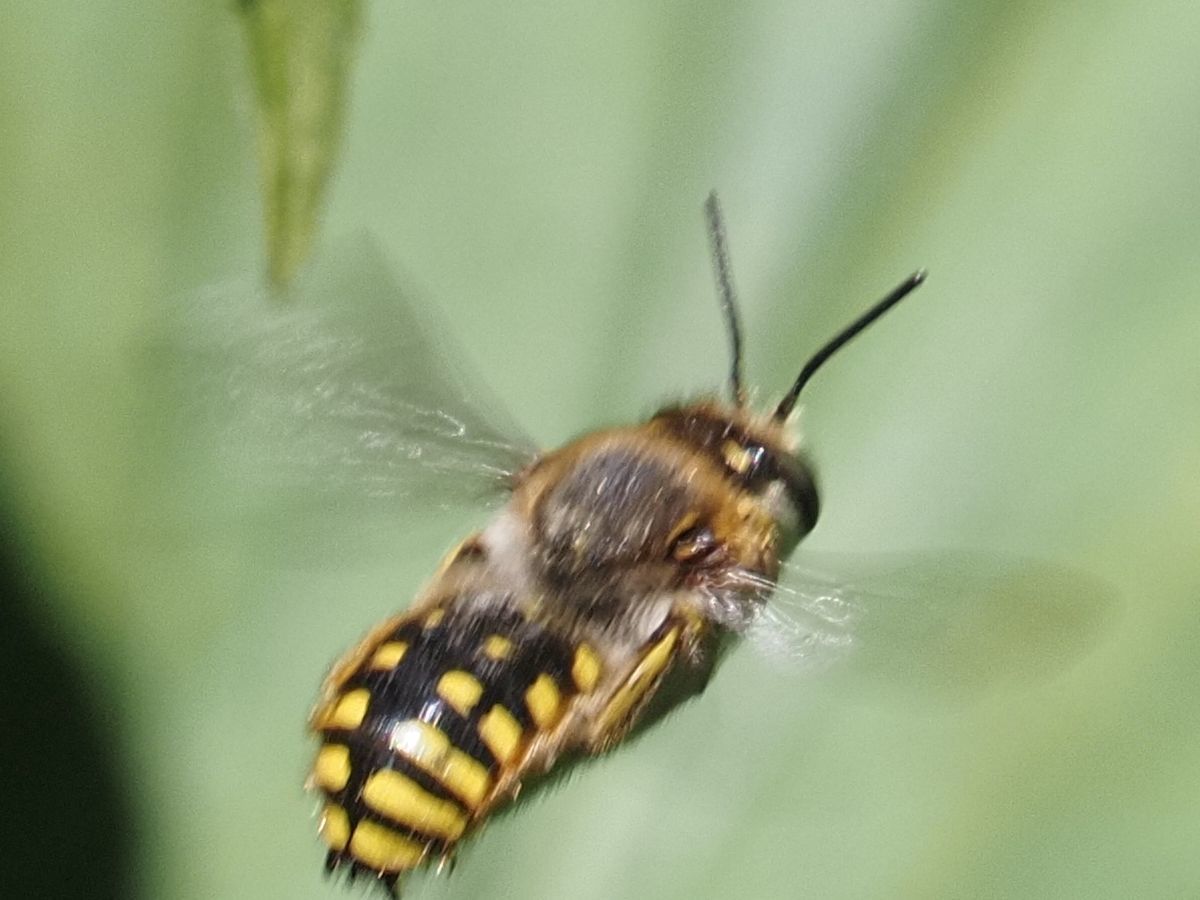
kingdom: Animalia
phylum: Arthropoda
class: Insecta
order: Hymenoptera
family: Megachilidae
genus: Anthidium
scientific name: Anthidium manicatum
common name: Wool carder bee
